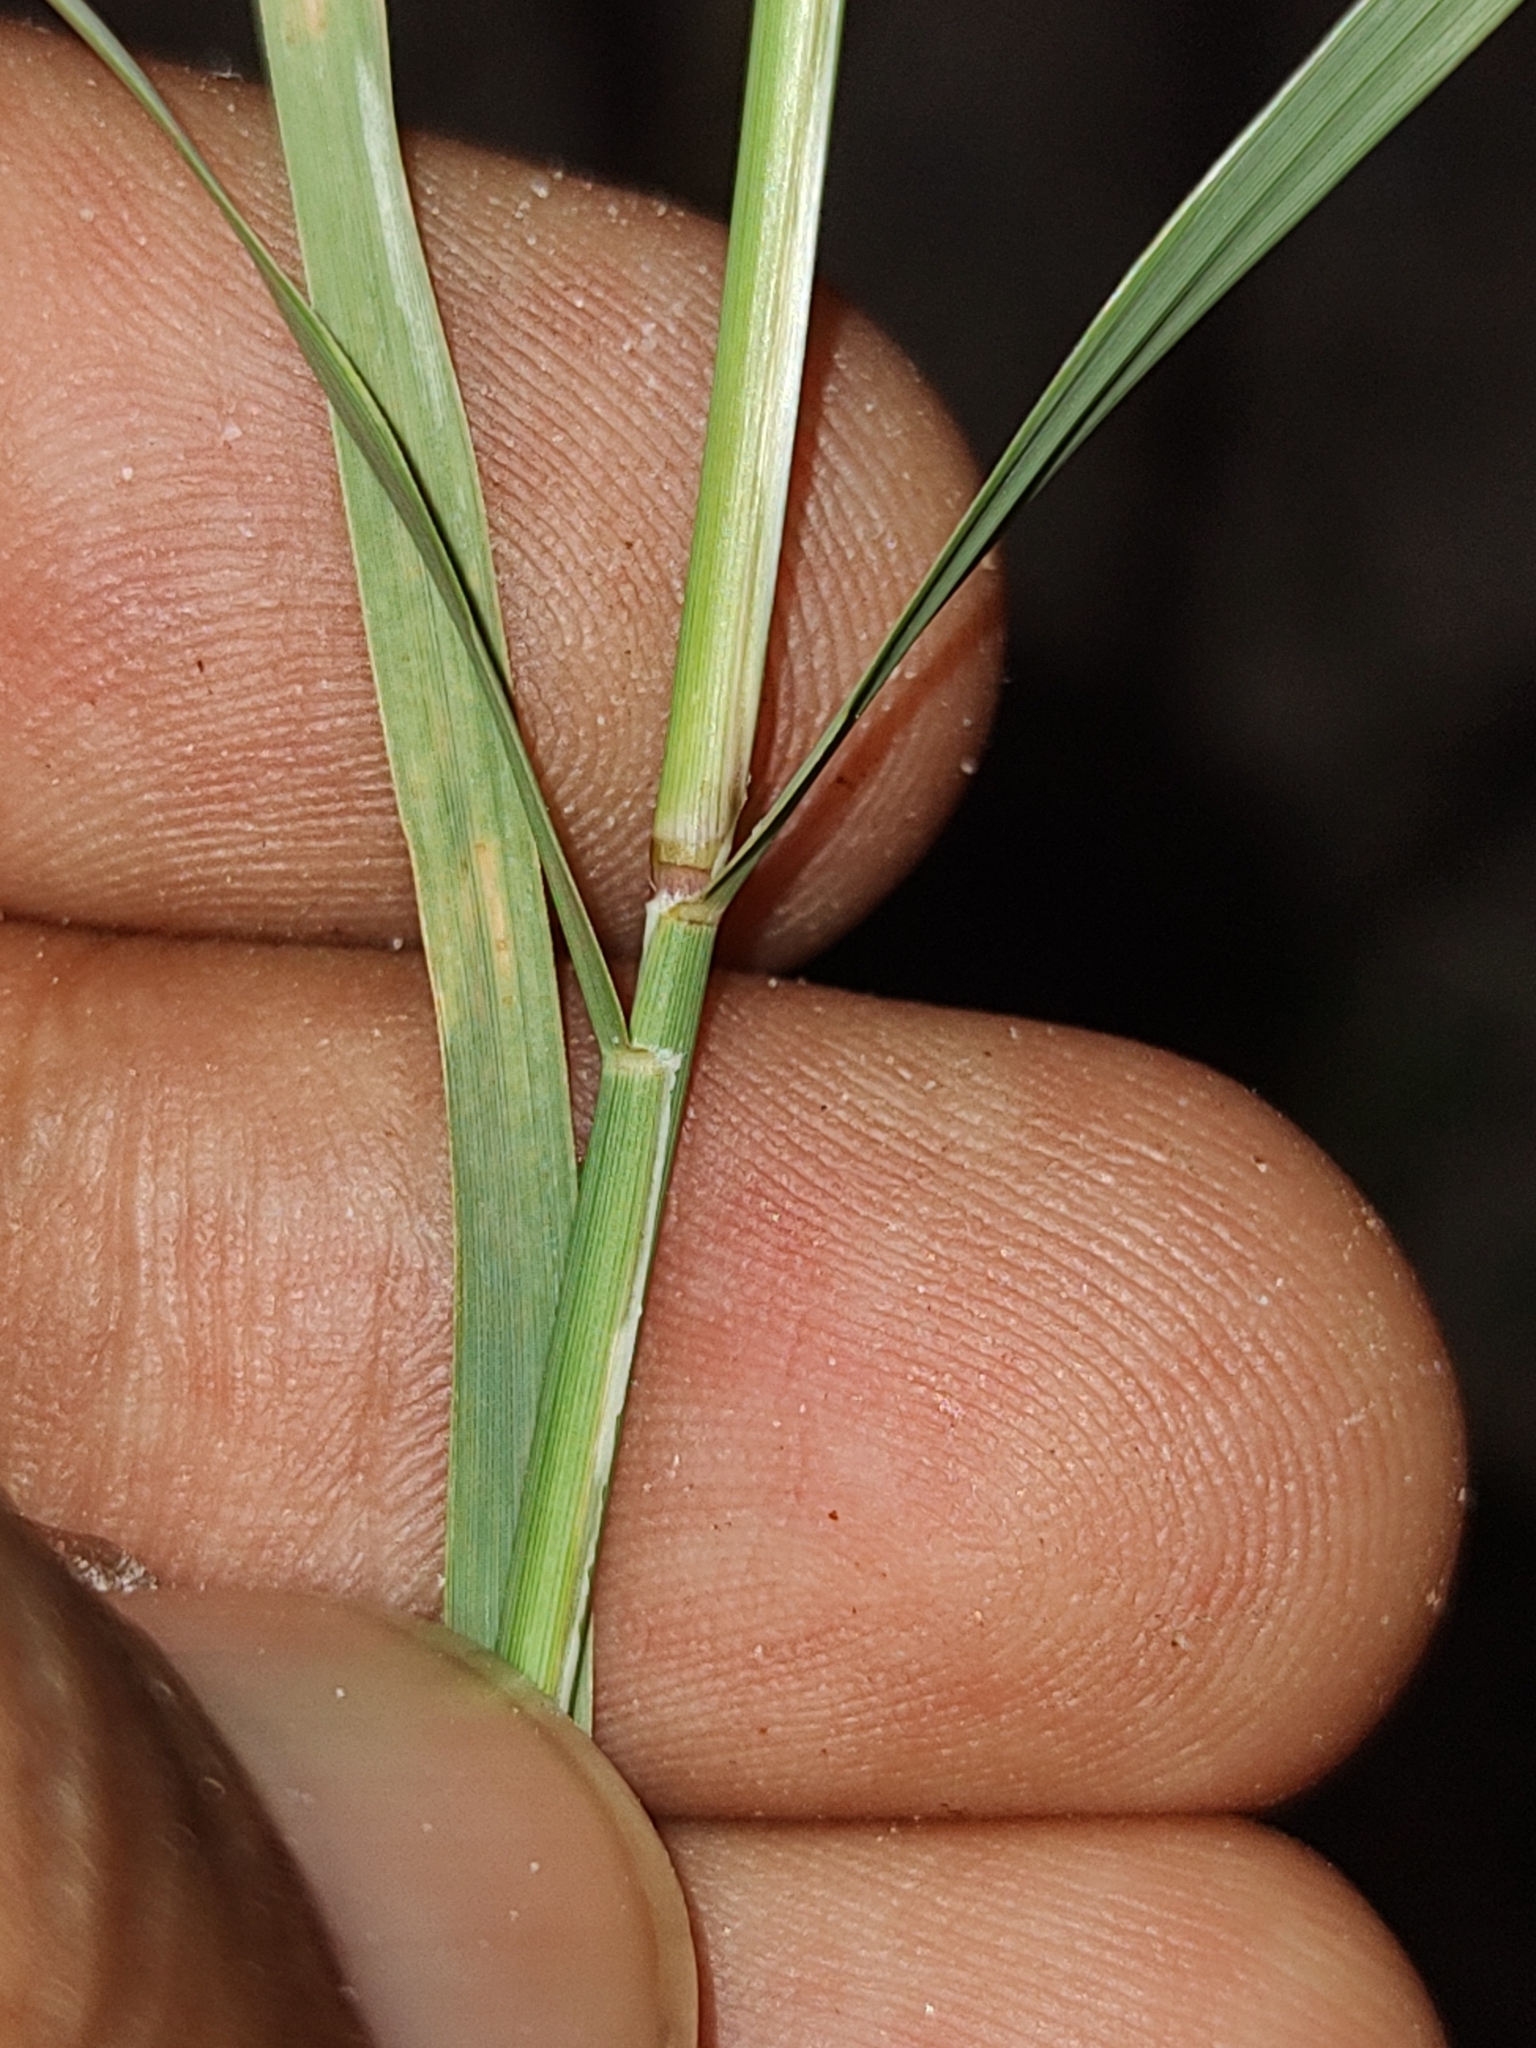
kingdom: Plantae
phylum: Tracheophyta
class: Liliopsida
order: Poales
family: Poaceae
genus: Cynodon
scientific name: Cynodon dactylon
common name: Bermuda grass
